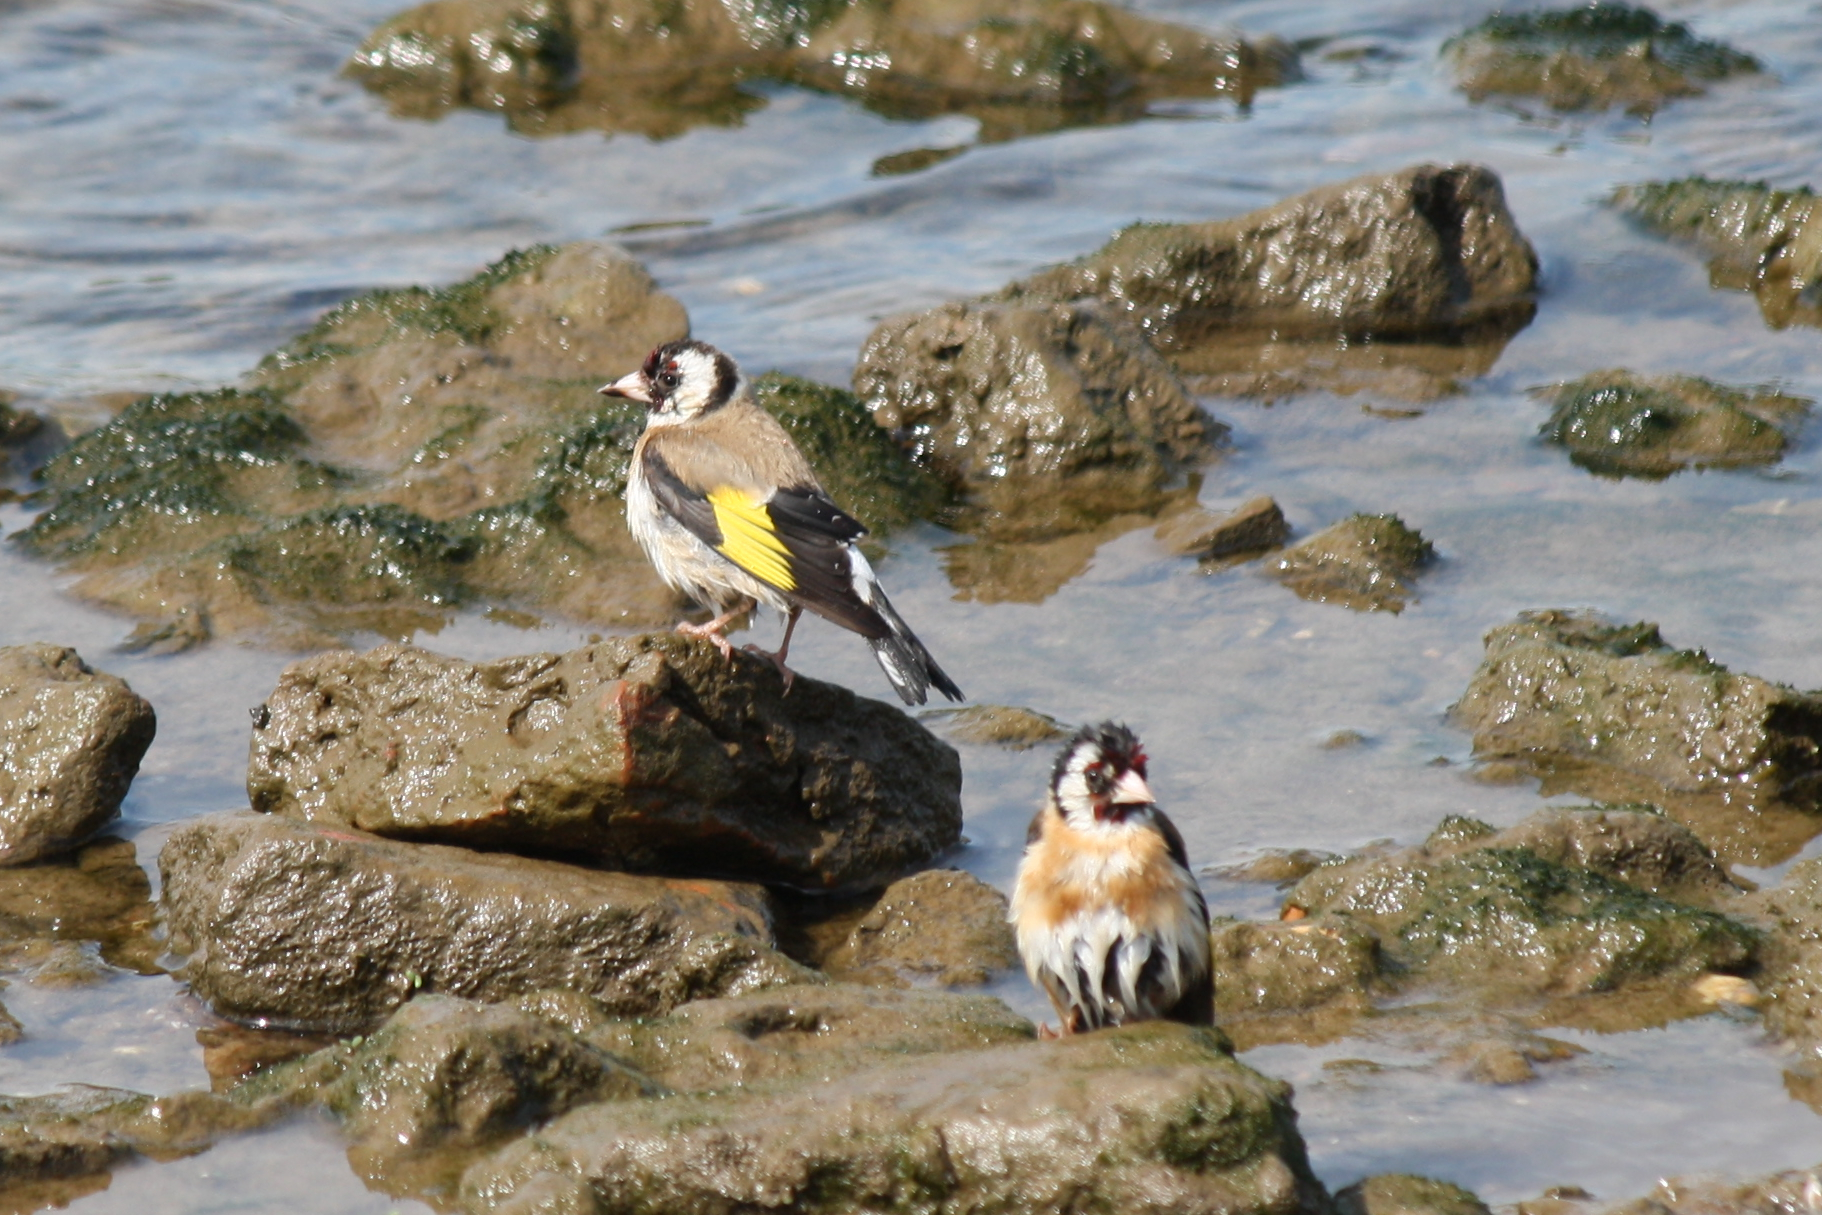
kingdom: Animalia
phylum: Chordata
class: Aves
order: Passeriformes
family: Fringillidae
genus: Carduelis
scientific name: Carduelis carduelis
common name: European goldfinch
